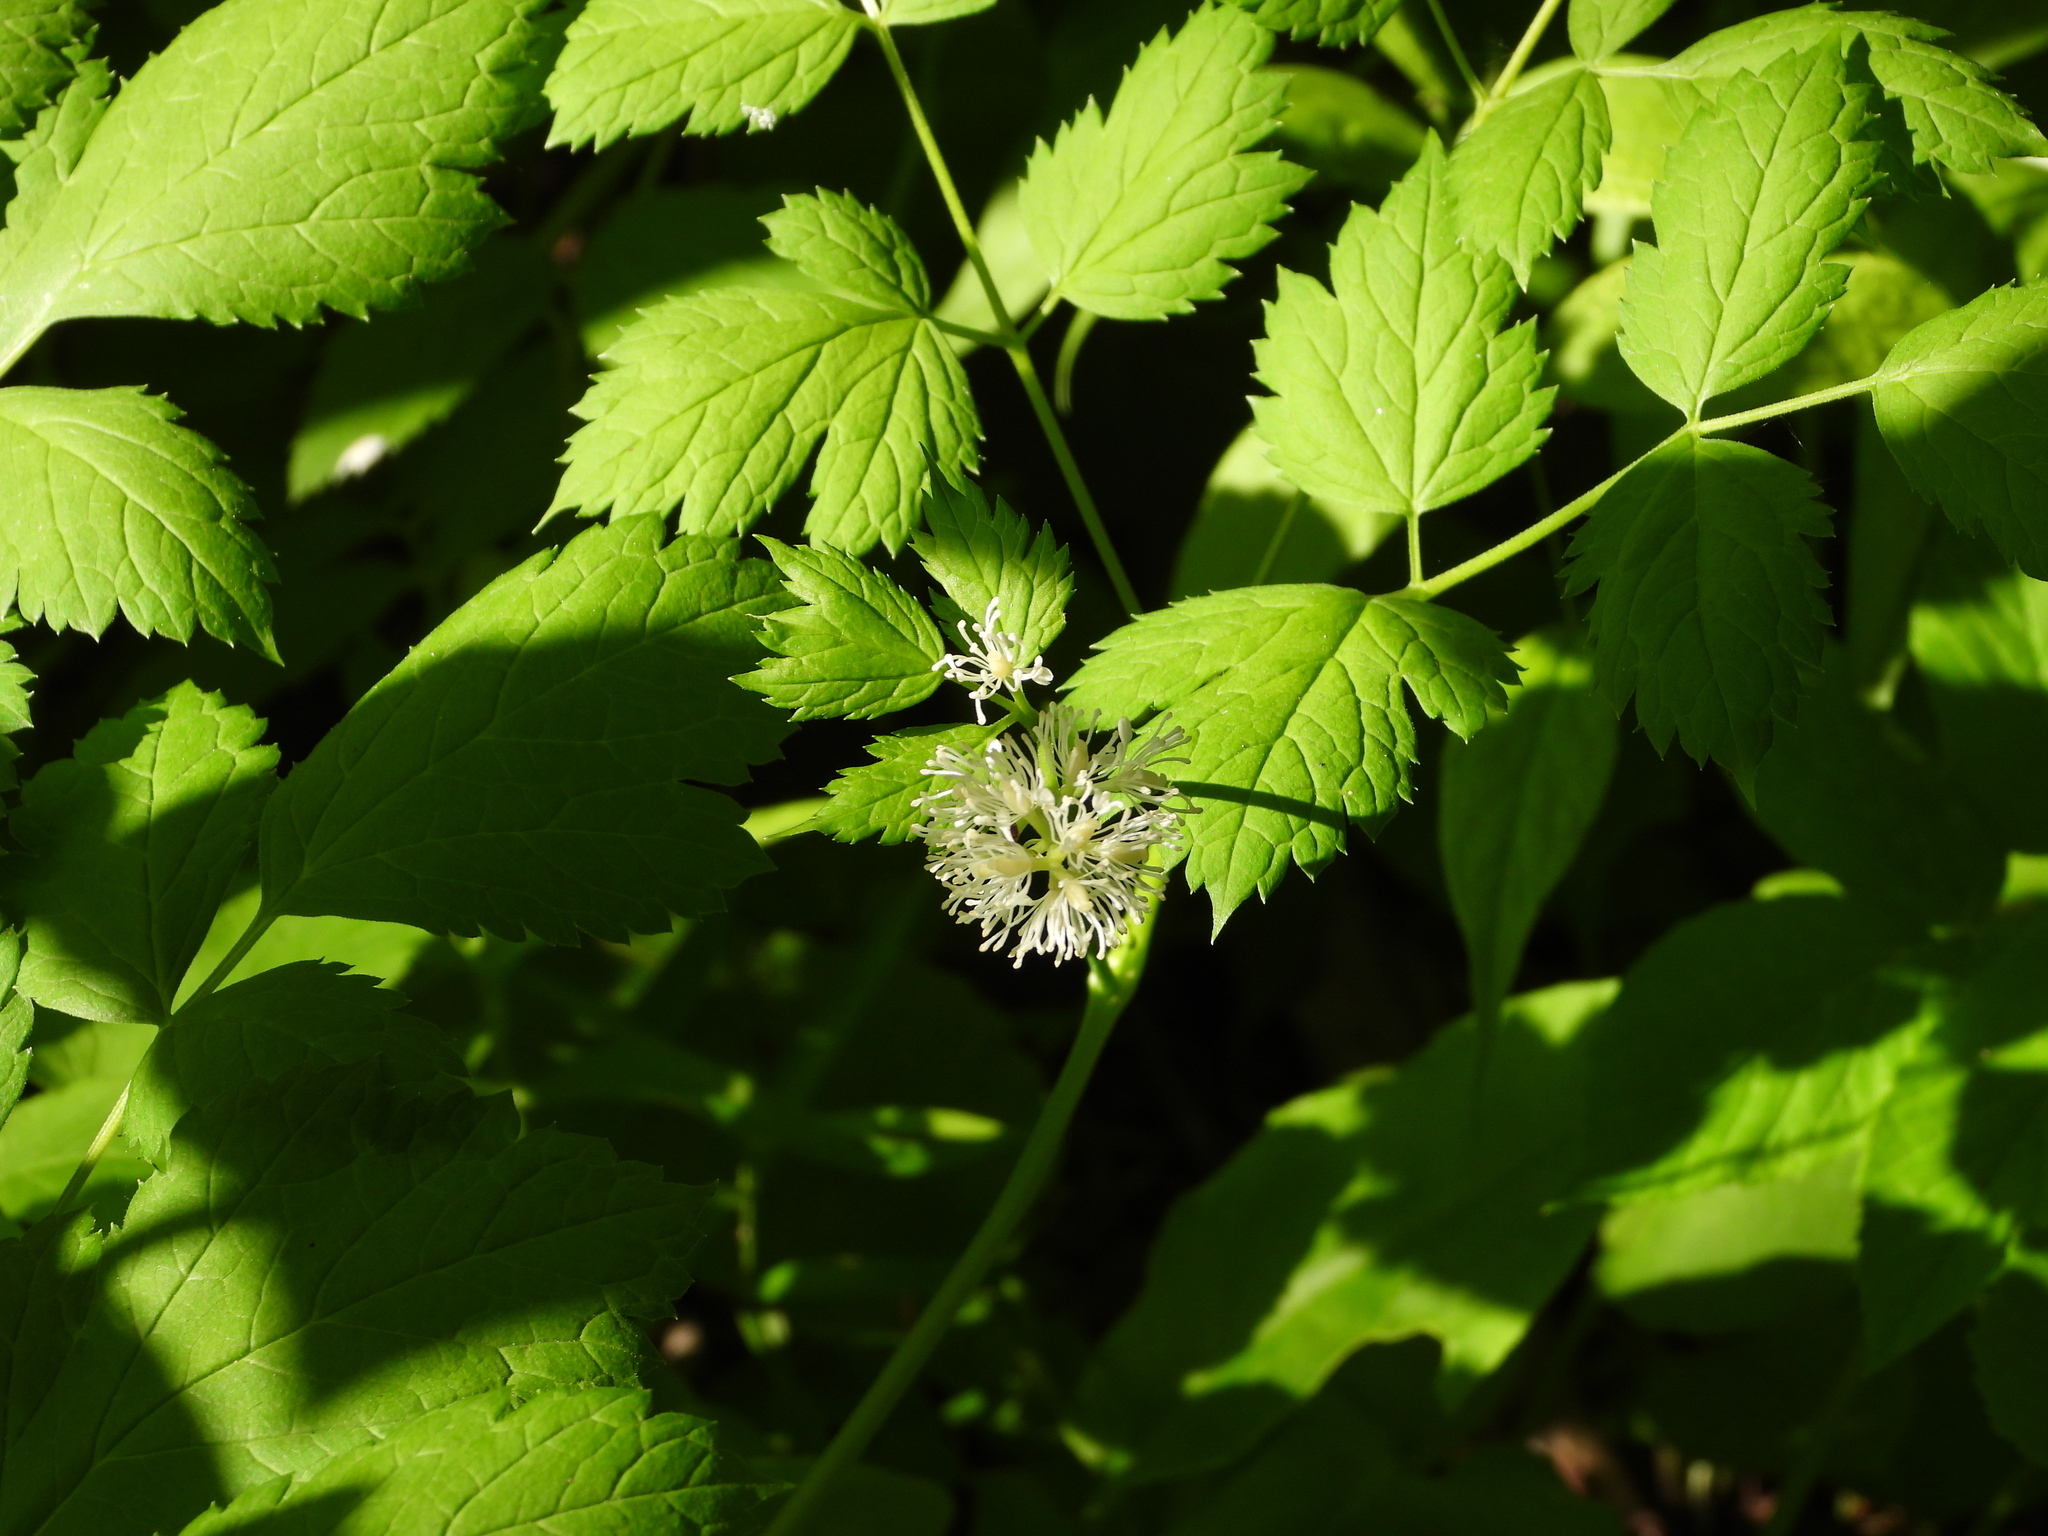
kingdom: Plantae
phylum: Tracheophyta
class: Magnoliopsida
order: Ranunculales
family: Ranunculaceae
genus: Actaea
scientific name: Actaea spicata
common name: Baneberry
